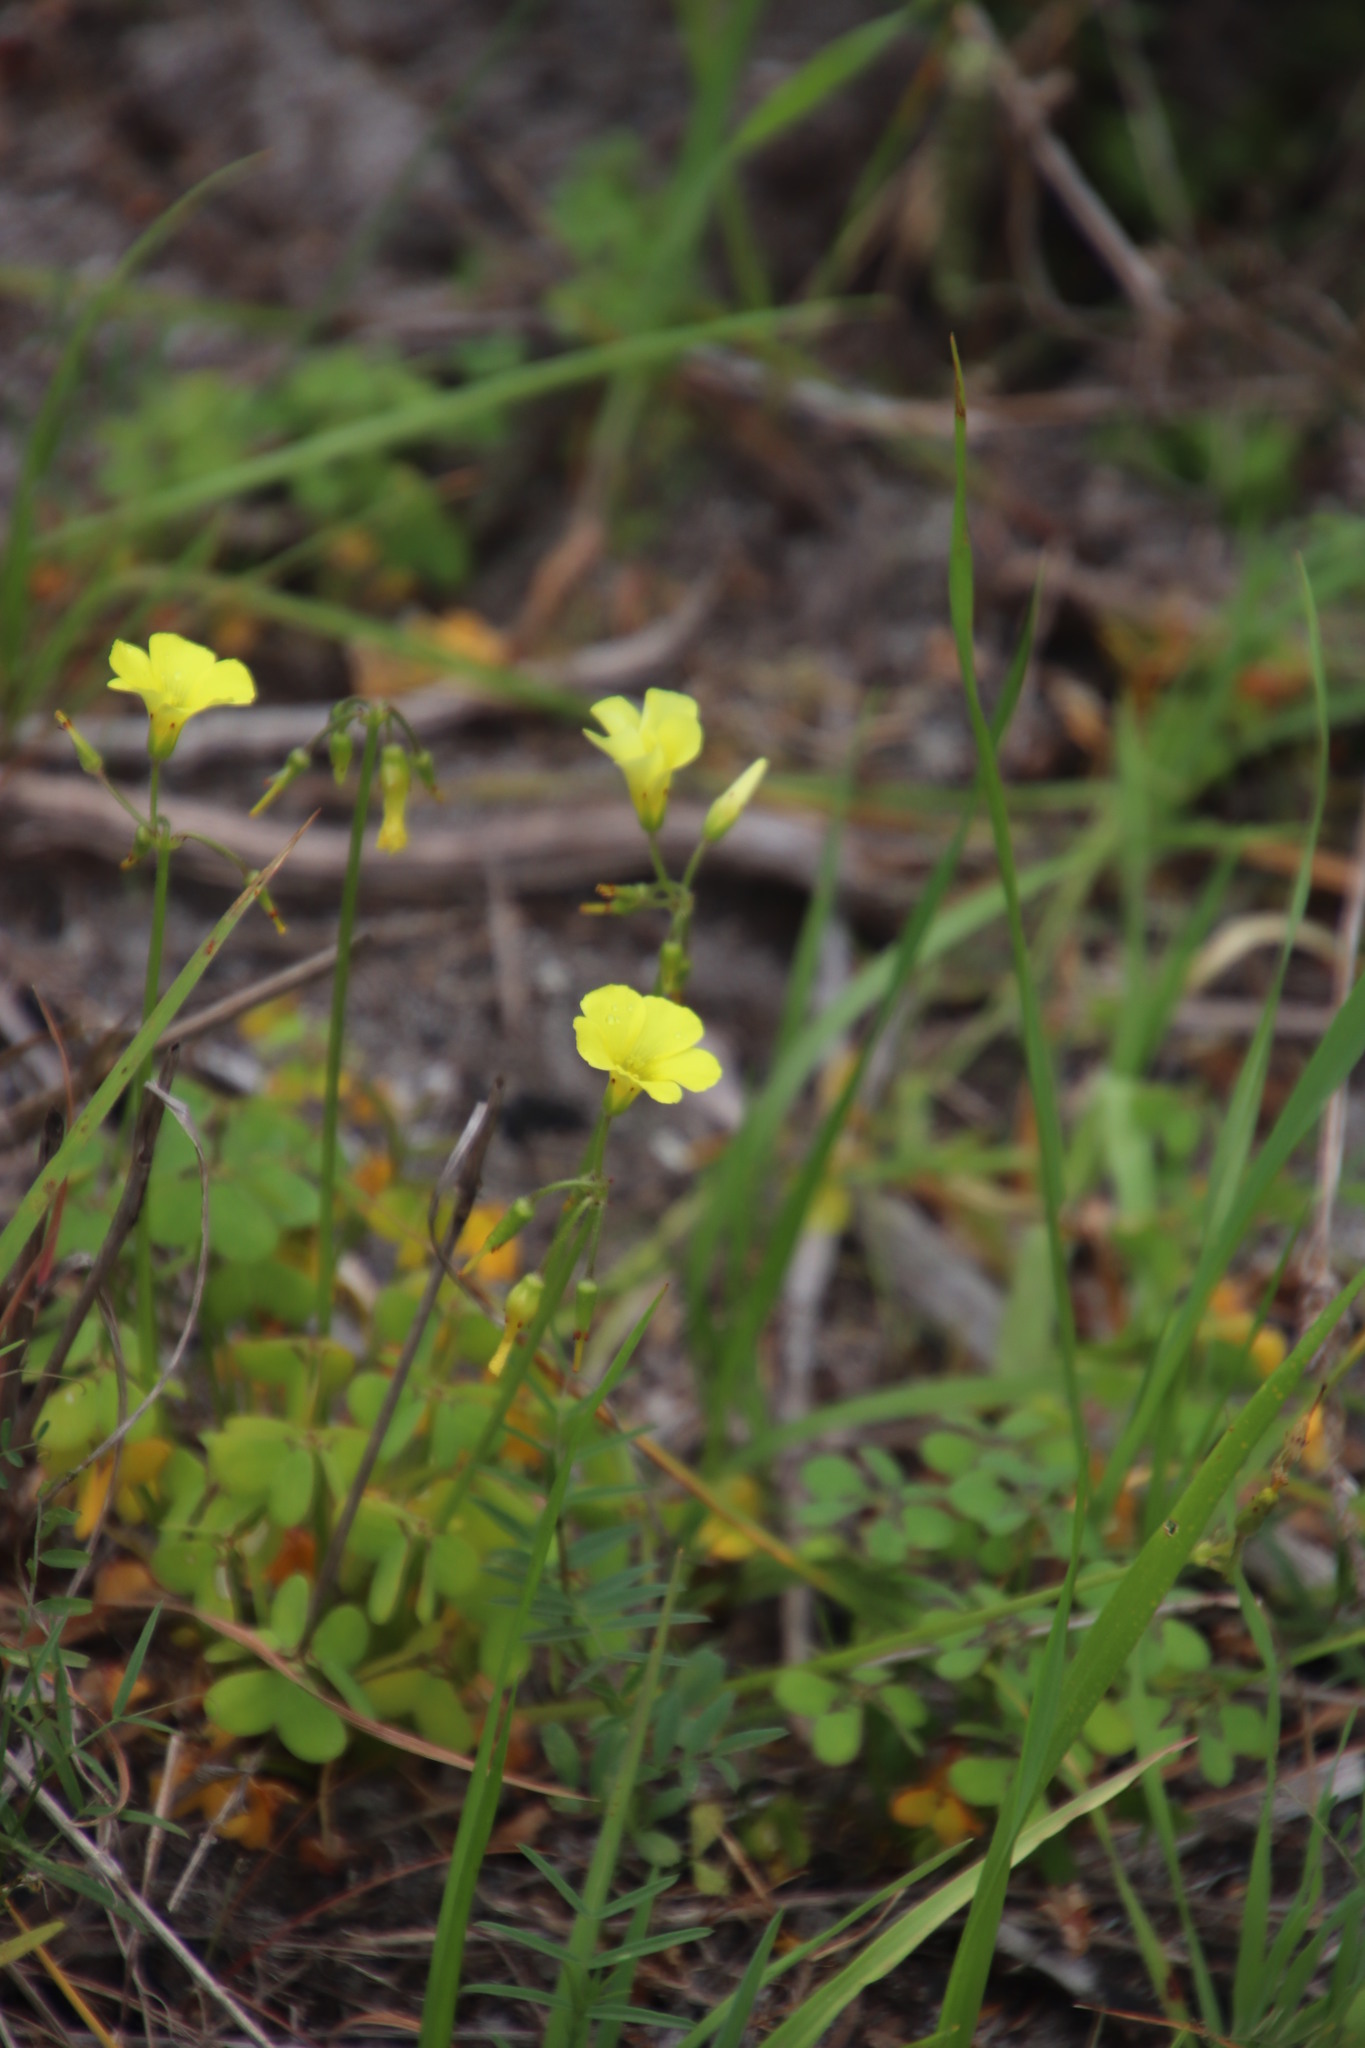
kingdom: Plantae
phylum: Tracheophyta
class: Magnoliopsida
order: Oxalidales
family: Oxalidaceae
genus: Oxalis
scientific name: Oxalis pes-caprae
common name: Bermuda-buttercup
